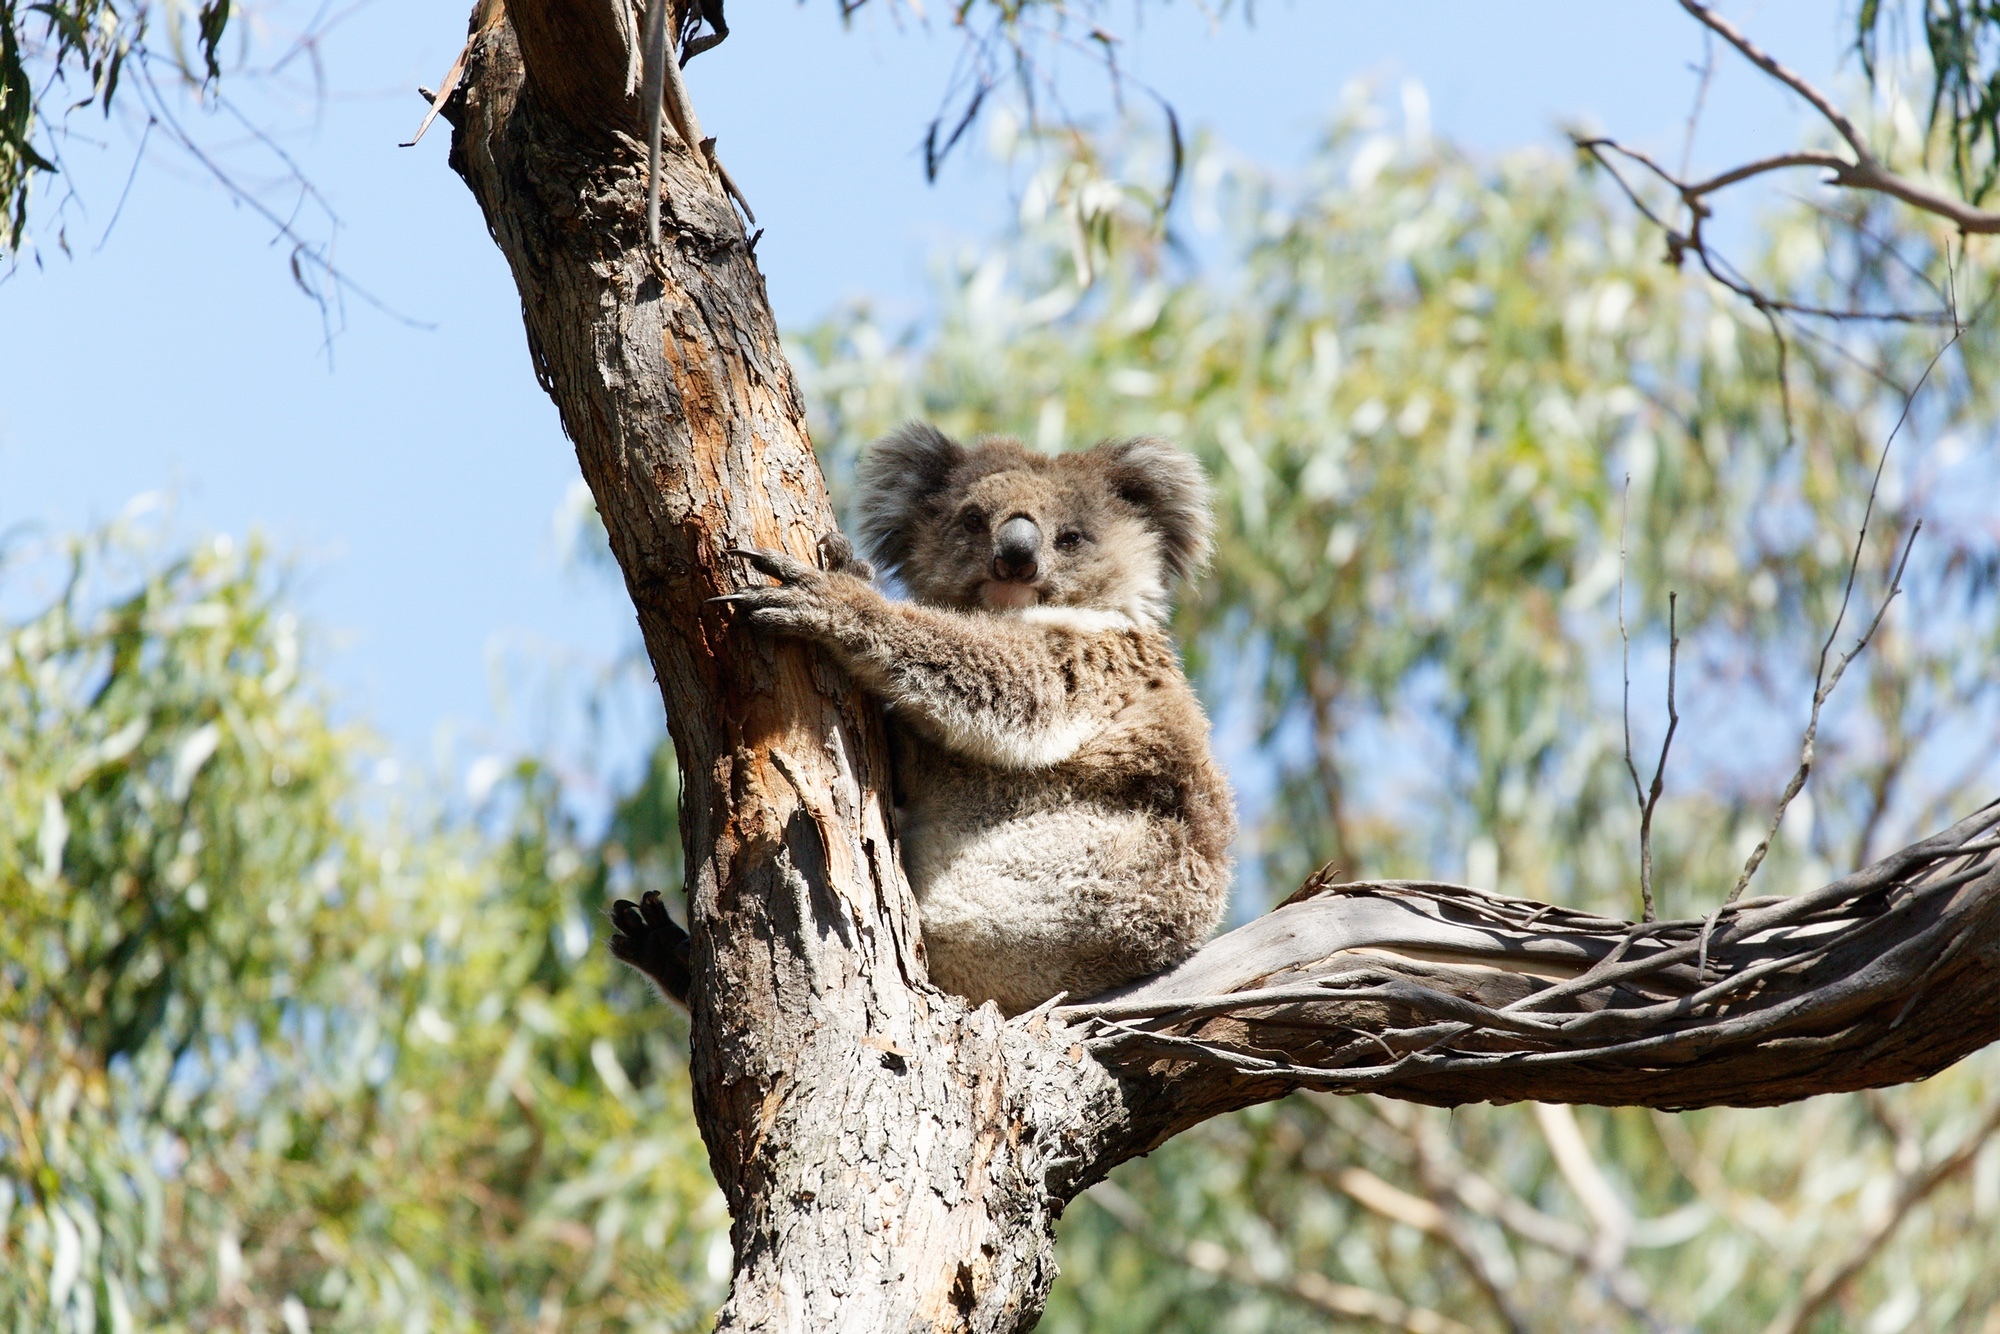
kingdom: Animalia
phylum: Chordata
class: Mammalia
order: Diprotodontia
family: Phascolarctidae
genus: Phascolarctos
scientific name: Phascolarctos cinereus
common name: Koala
